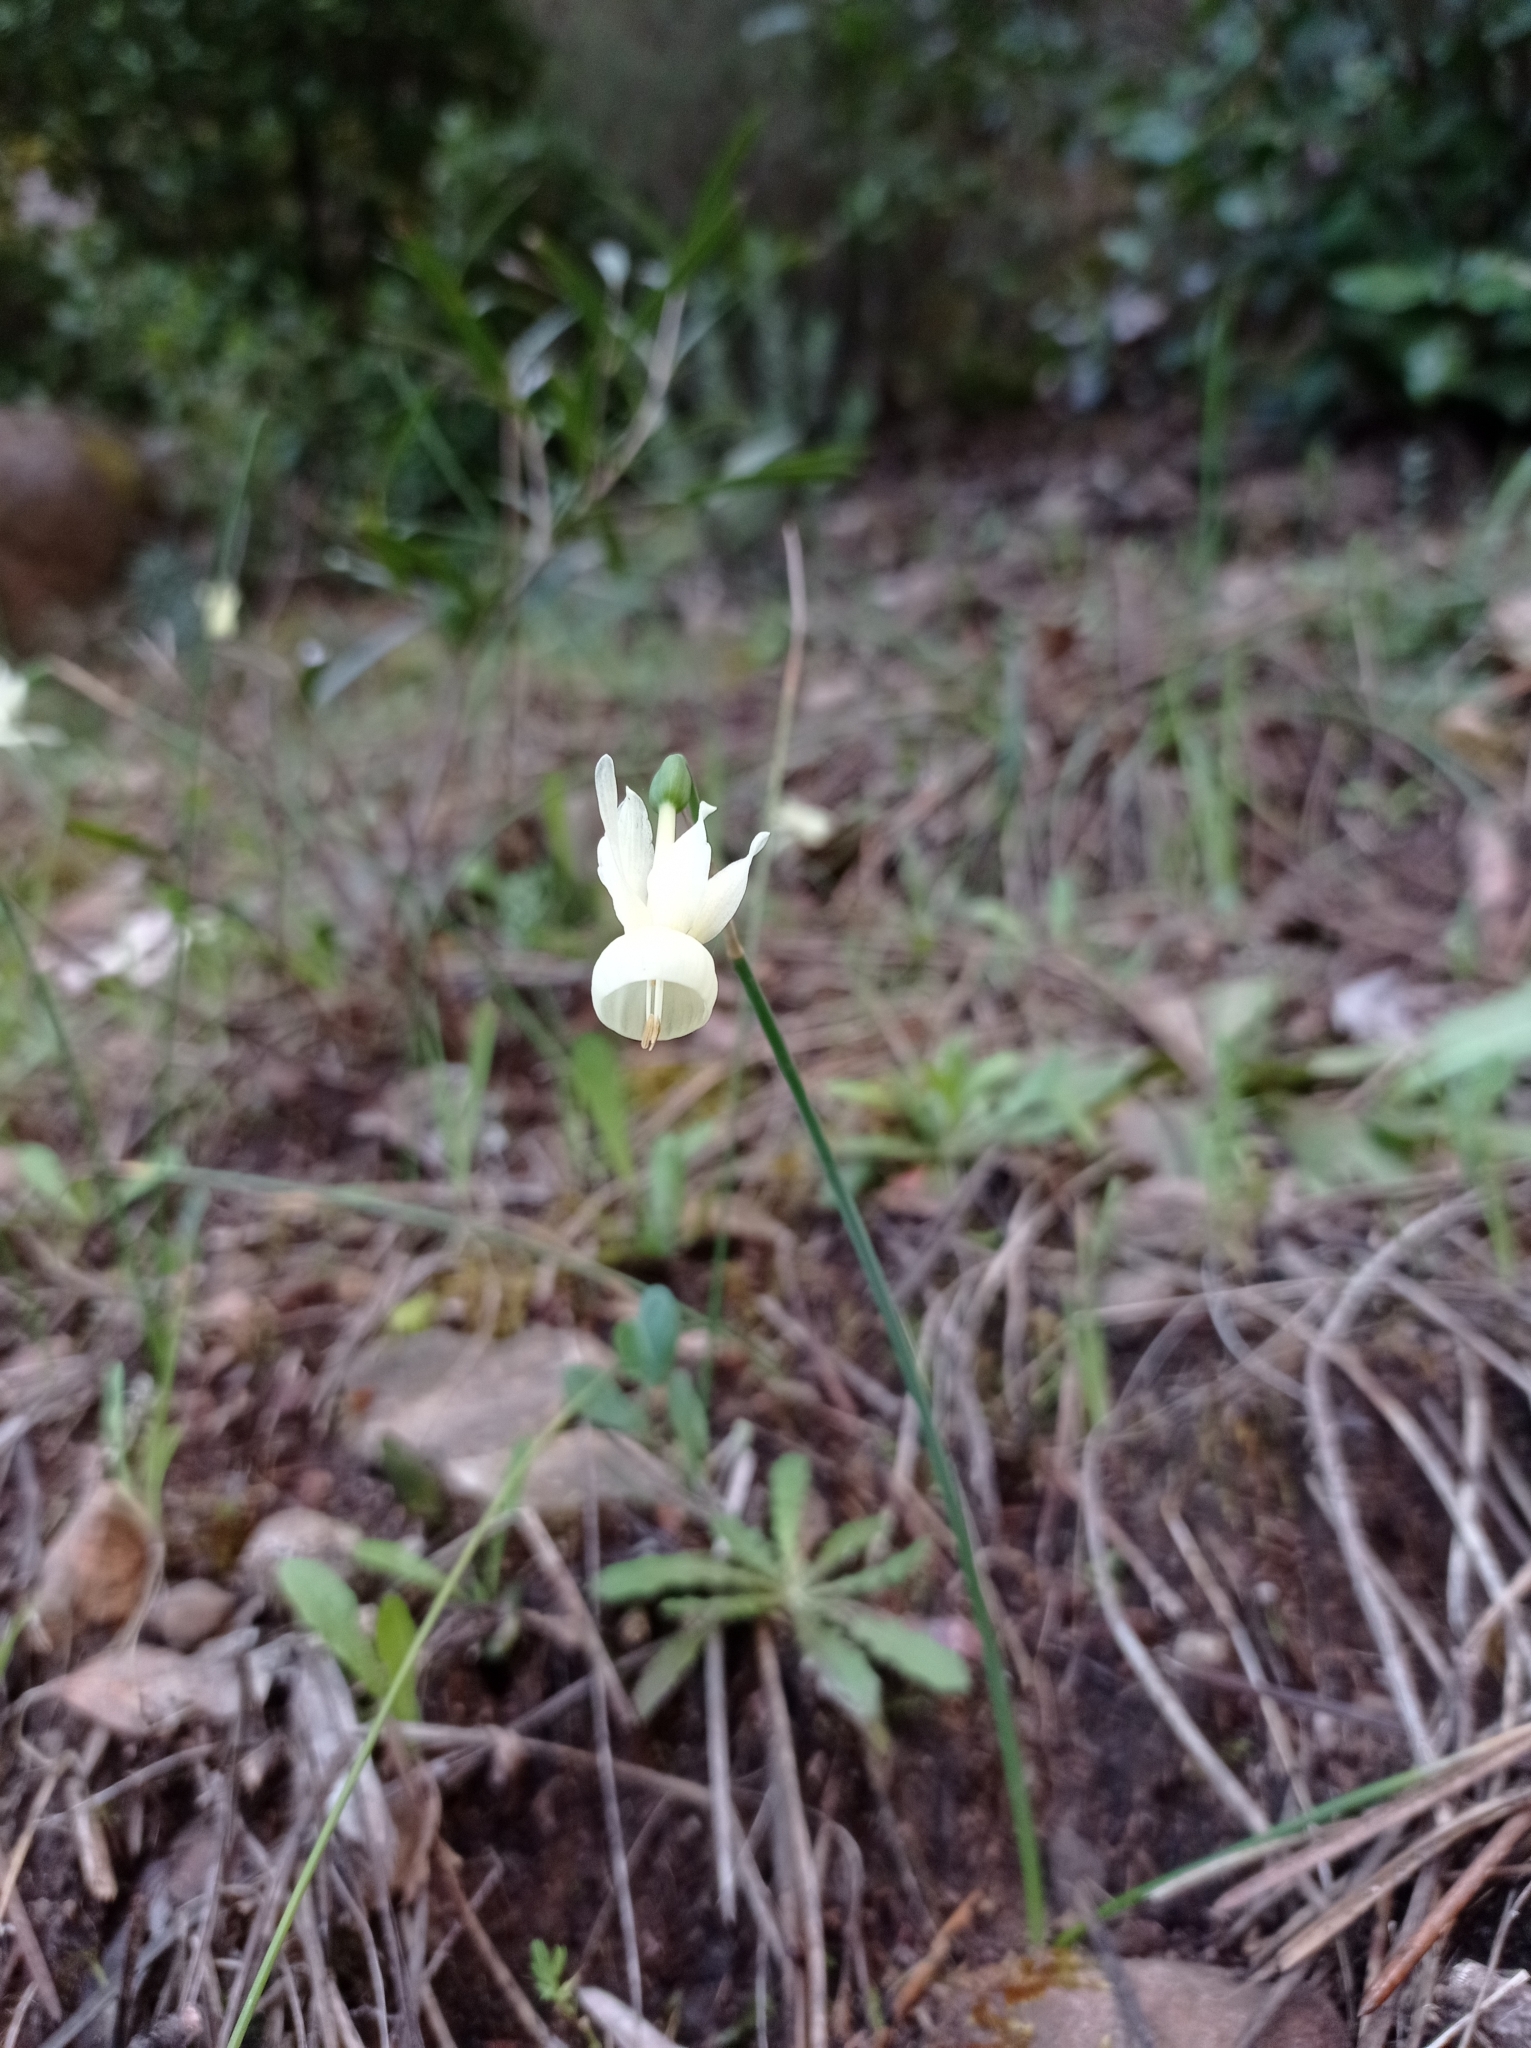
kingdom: Plantae
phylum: Tracheophyta
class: Liliopsida
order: Asparagales
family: Amaryllidaceae
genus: Narcissus
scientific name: Narcissus triandrus
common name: Angel's-tears
